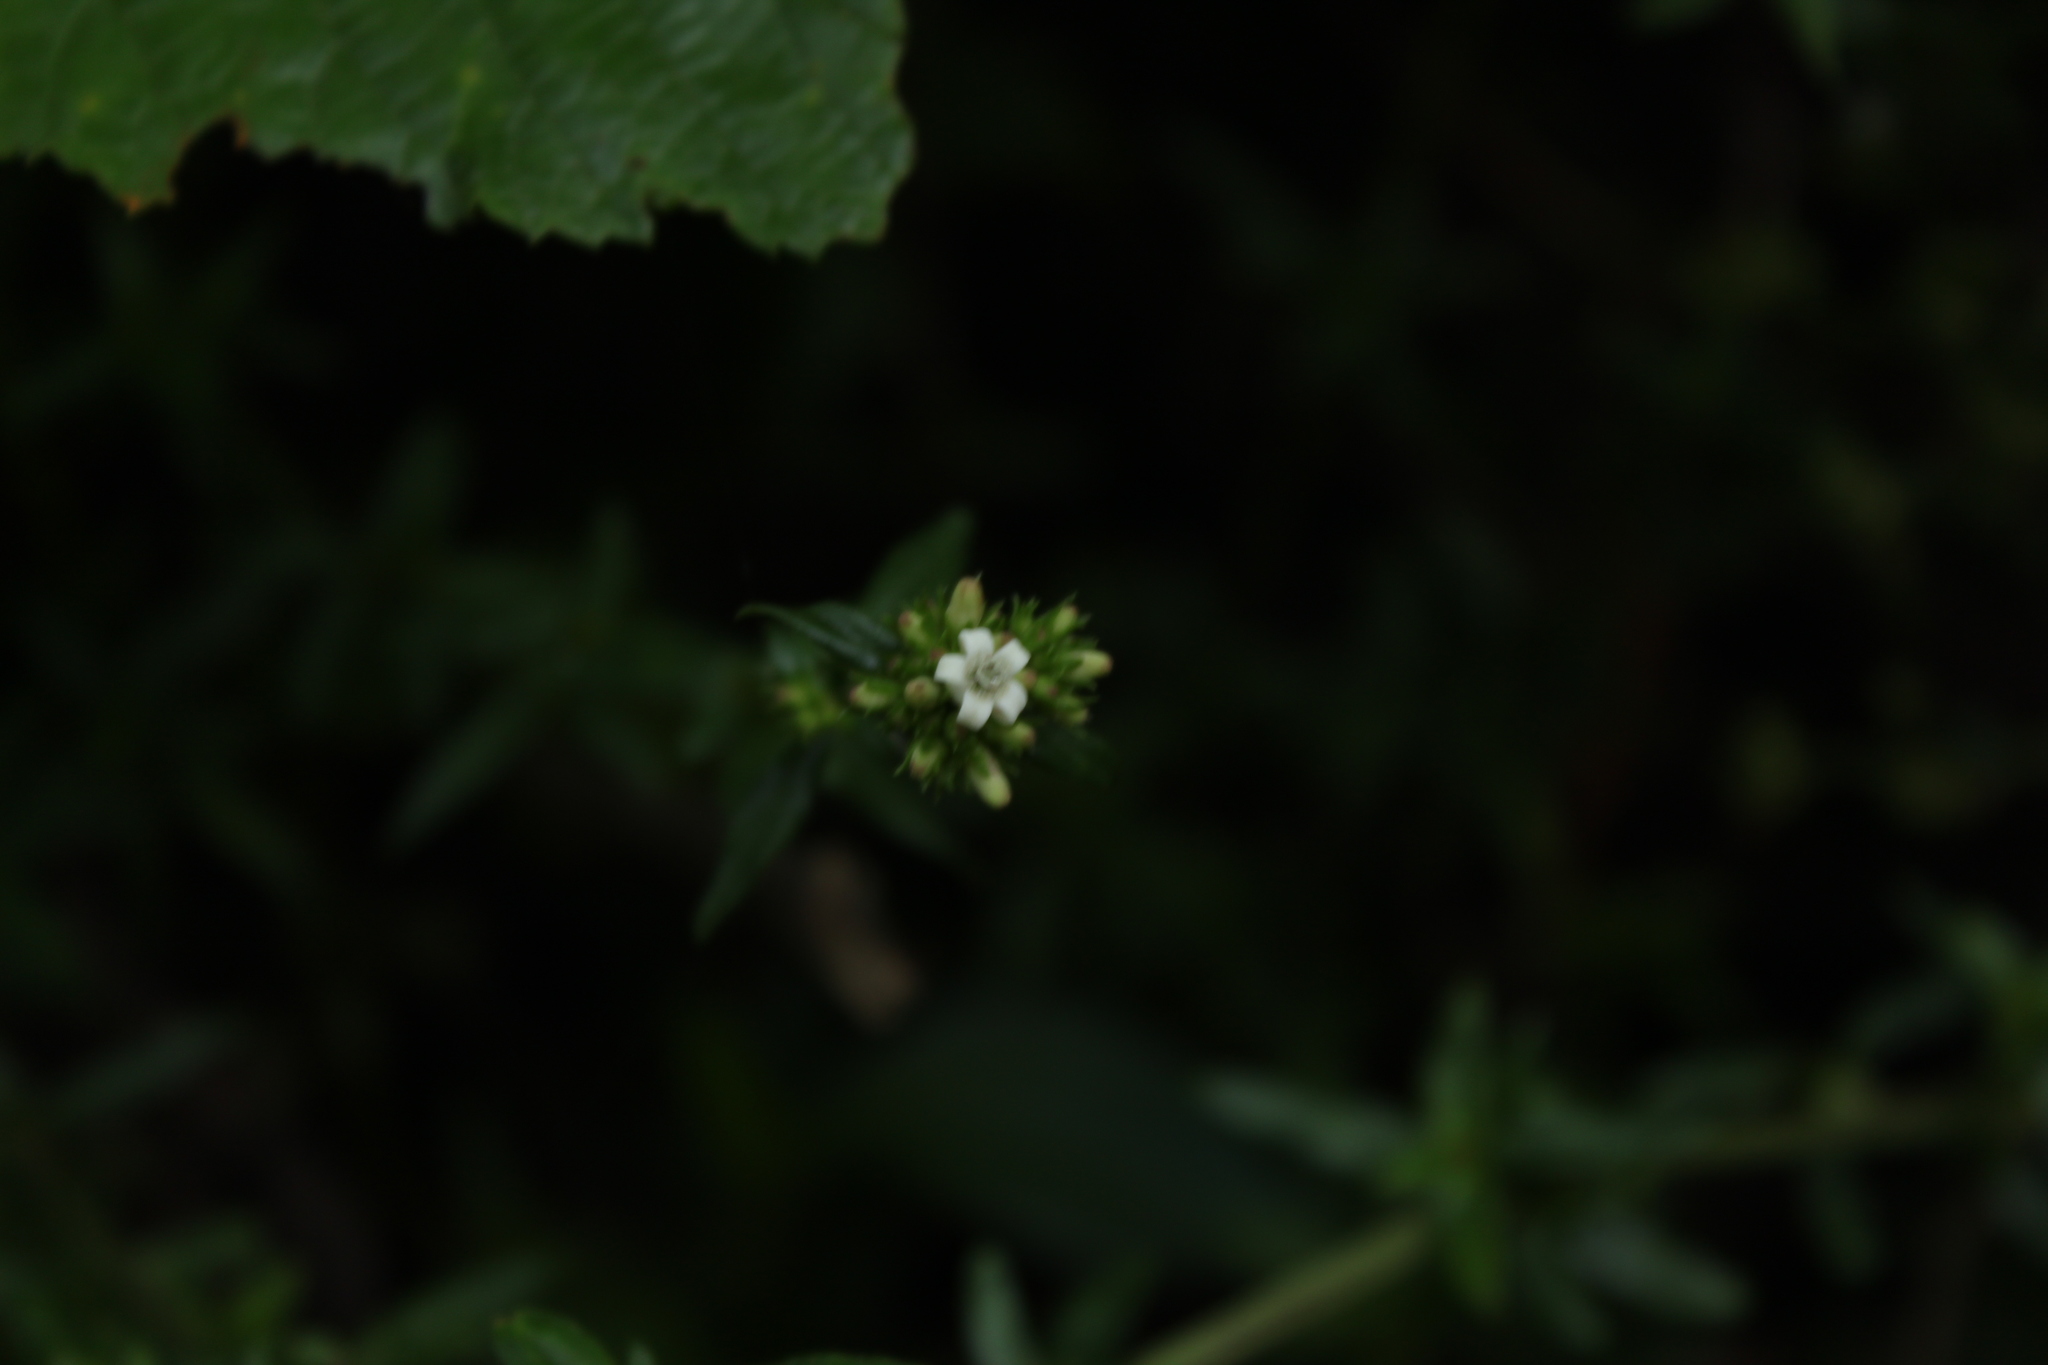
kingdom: Plantae
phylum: Tracheophyta
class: Magnoliopsida
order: Gentianales
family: Rubiaceae
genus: Galianthe
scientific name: Galianthe bogotensis
